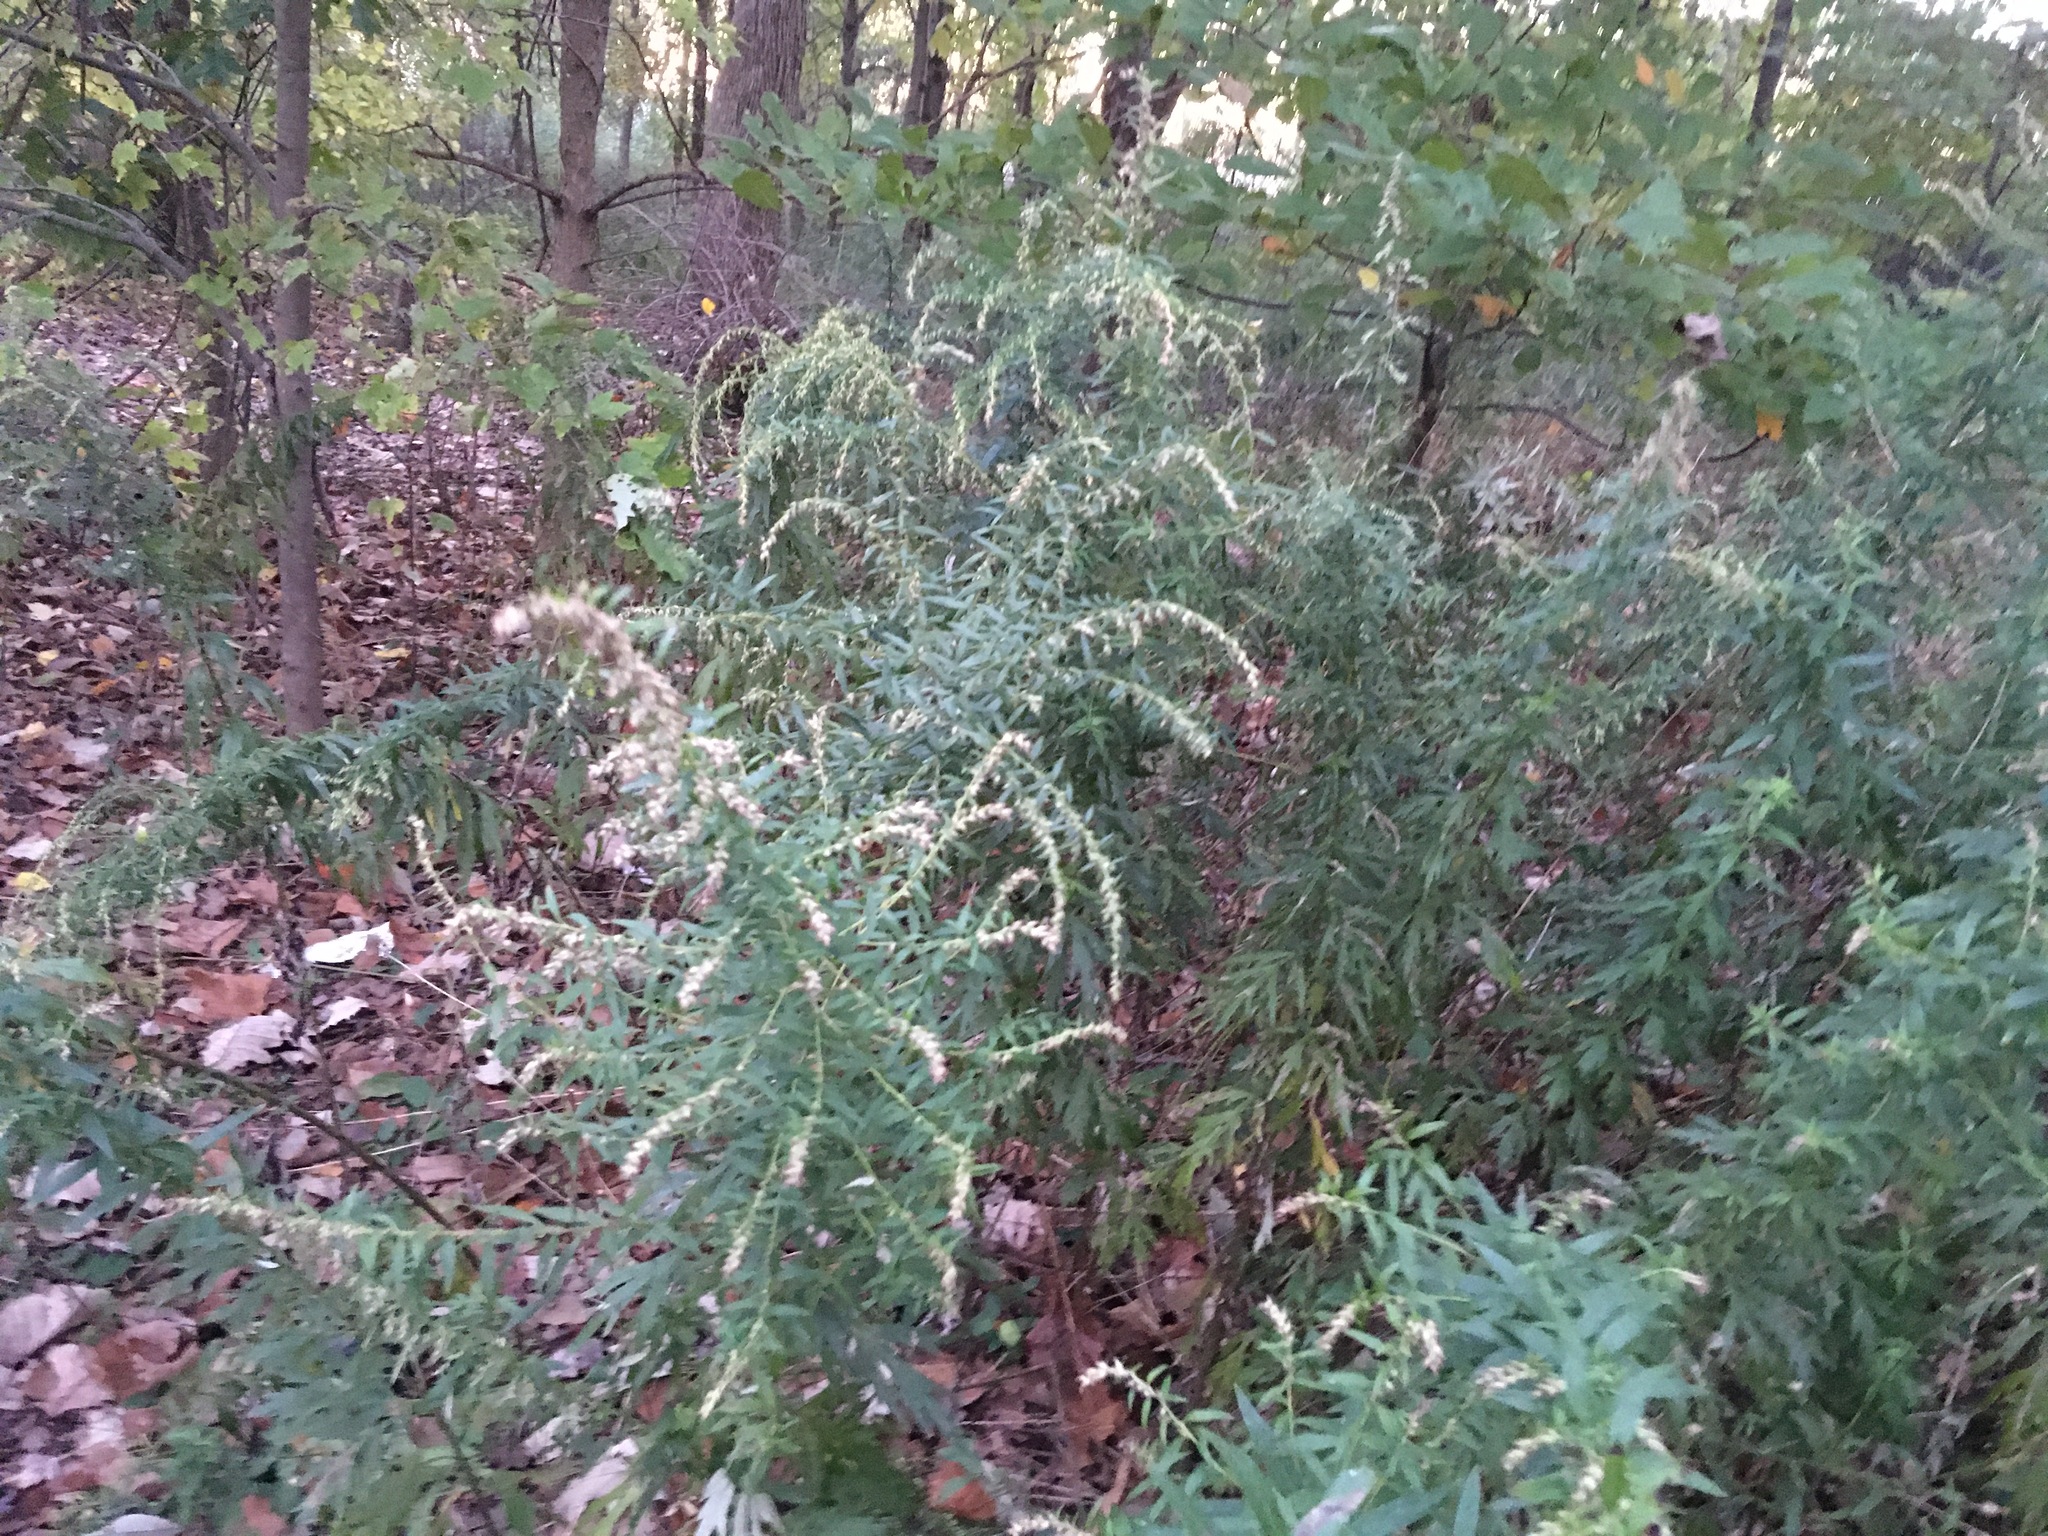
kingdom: Plantae
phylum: Tracheophyta
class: Magnoliopsida
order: Asterales
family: Asteraceae
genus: Artemisia
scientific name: Artemisia vulgaris
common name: Mugwort
